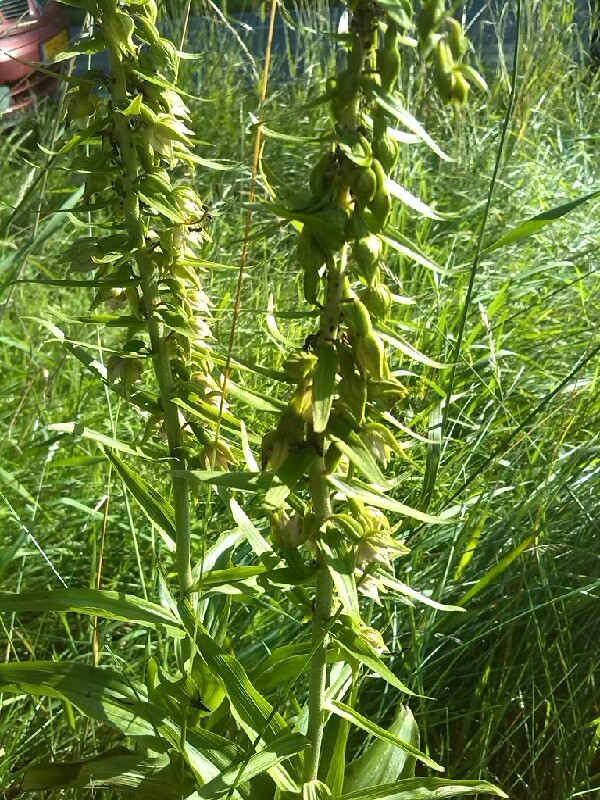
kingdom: Plantae
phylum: Tracheophyta
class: Liliopsida
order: Asparagales
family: Orchidaceae
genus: Epipactis
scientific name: Epipactis helleborine
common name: Broad-leaved helleborine
